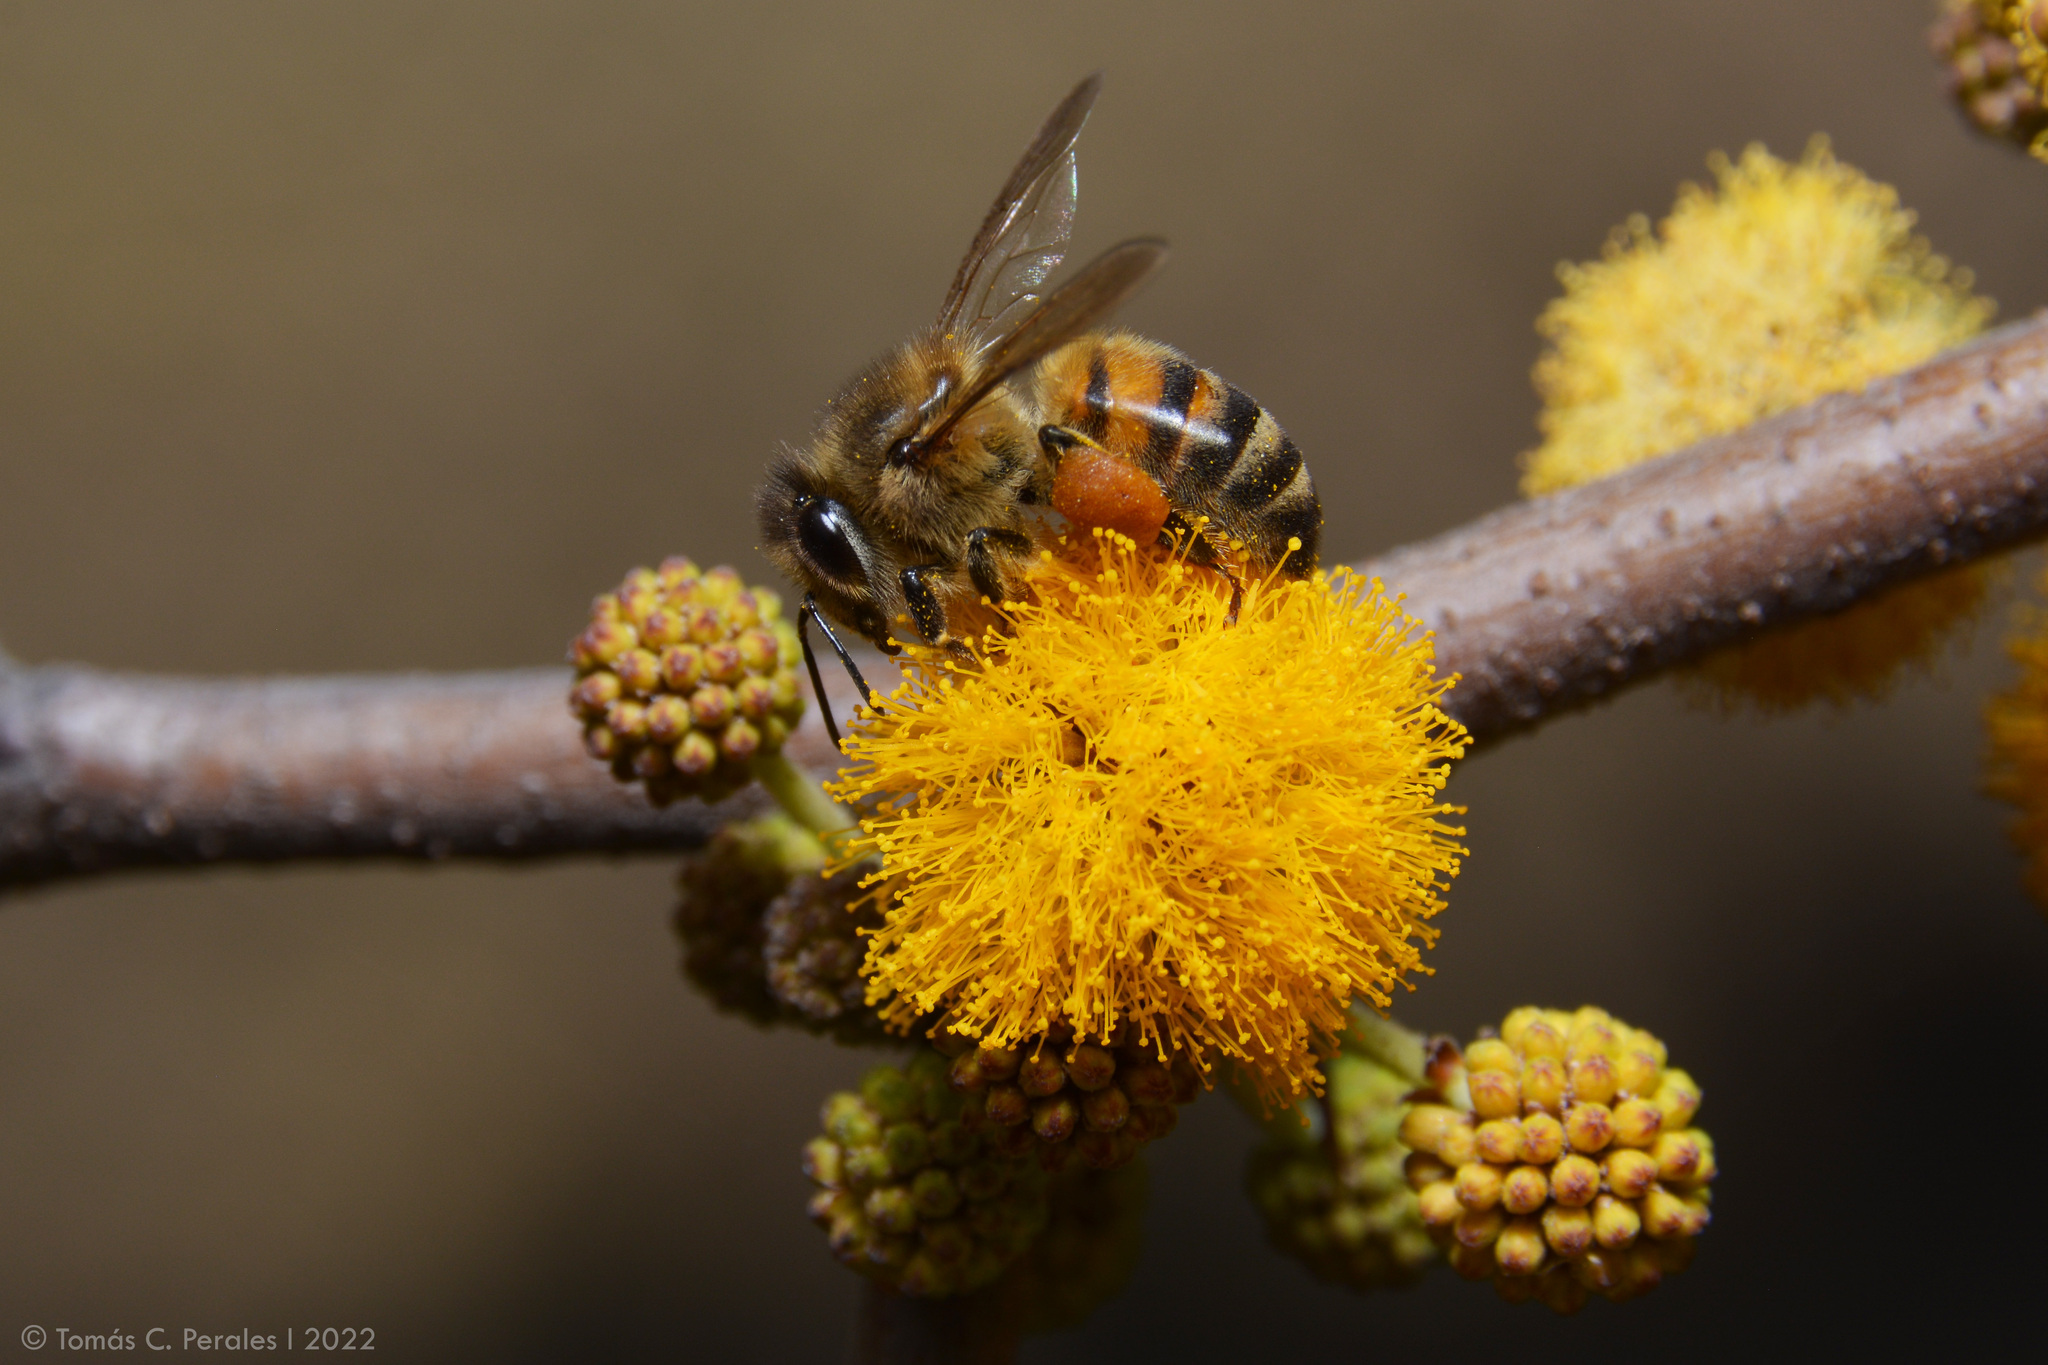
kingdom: Animalia
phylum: Arthropoda
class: Insecta
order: Hymenoptera
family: Apidae
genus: Apis
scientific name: Apis mellifera
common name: Honey bee
